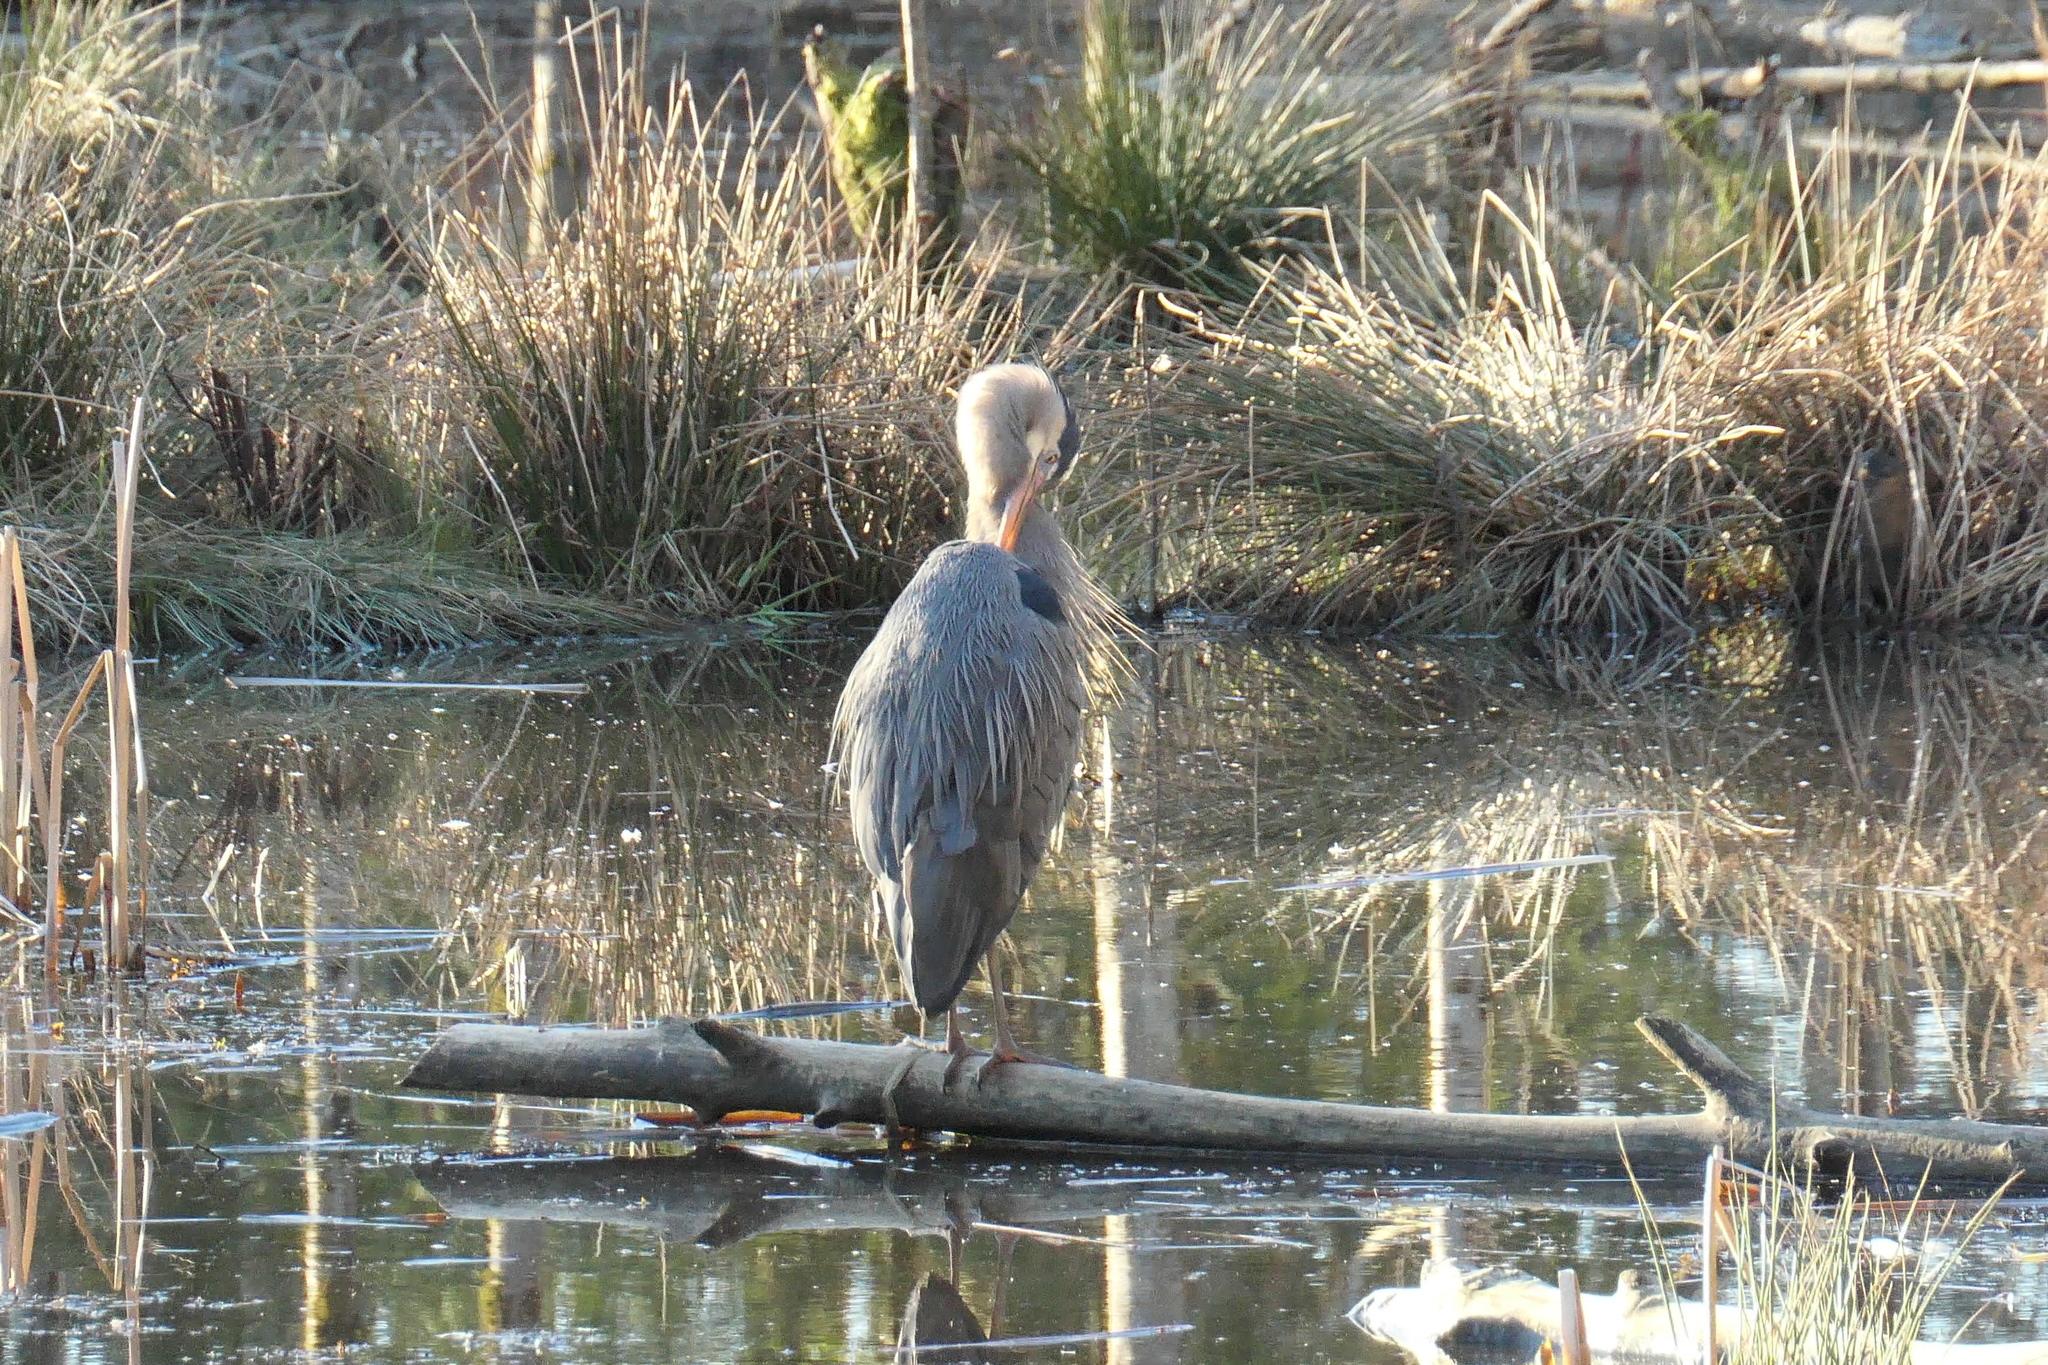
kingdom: Animalia
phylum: Chordata
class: Aves
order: Pelecaniformes
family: Ardeidae
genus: Ardea
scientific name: Ardea herodias
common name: Great blue heron
